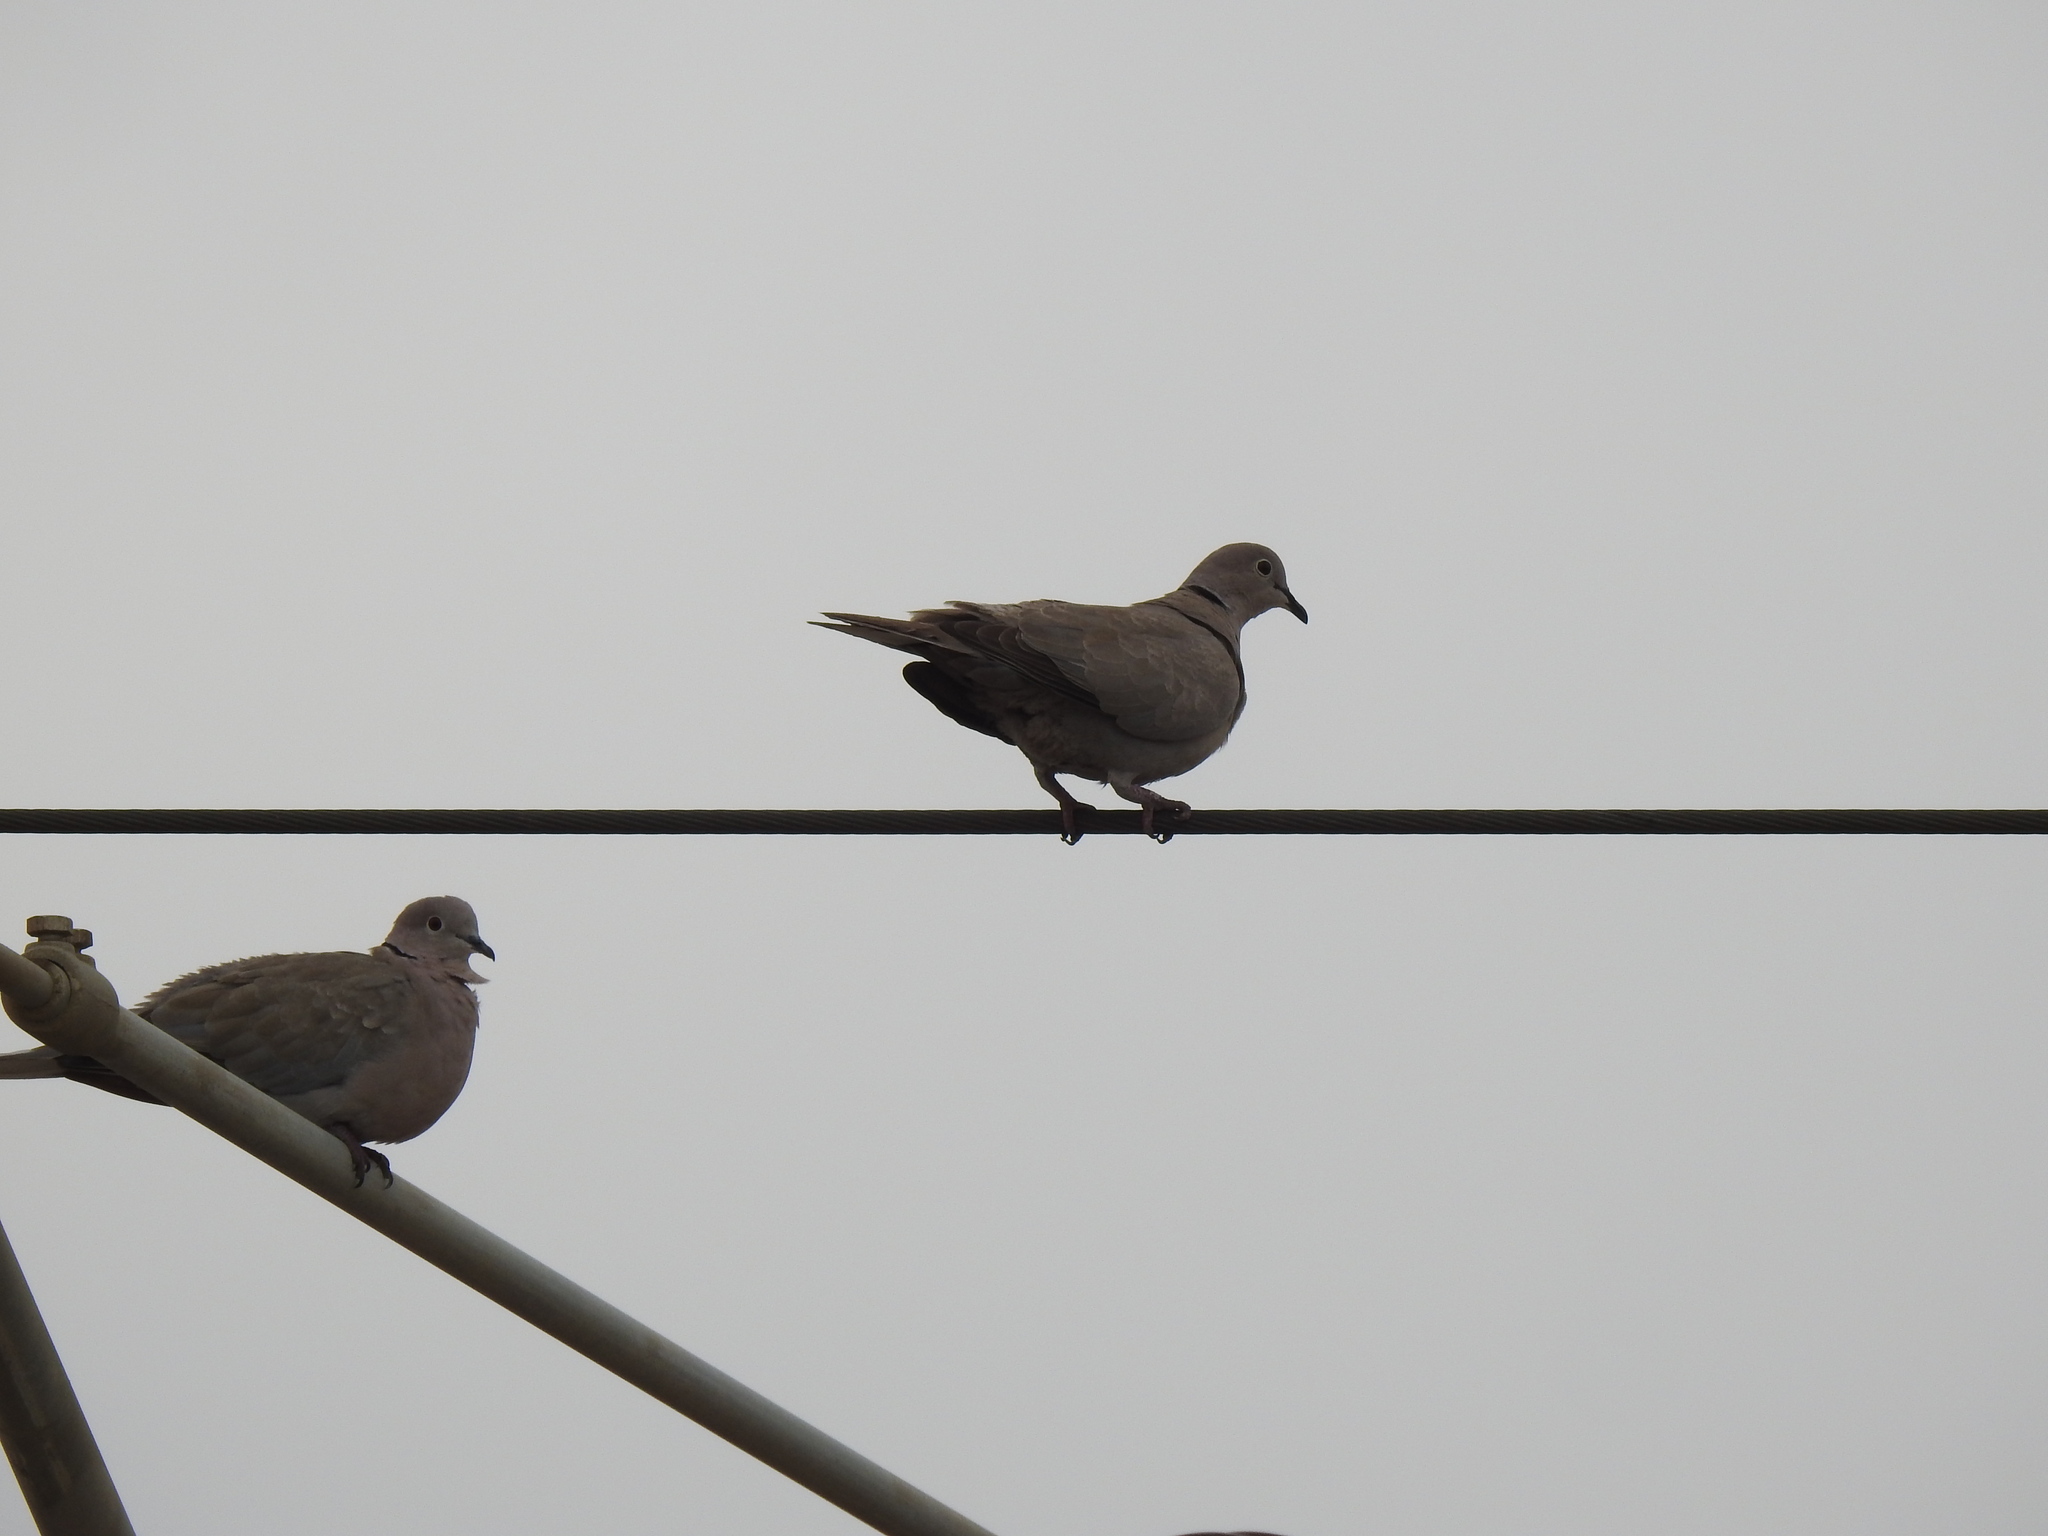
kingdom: Animalia
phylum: Chordata
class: Aves
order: Columbiformes
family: Columbidae
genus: Streptopelia
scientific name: Streptopelia decaocto
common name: Eurasian collared dove
